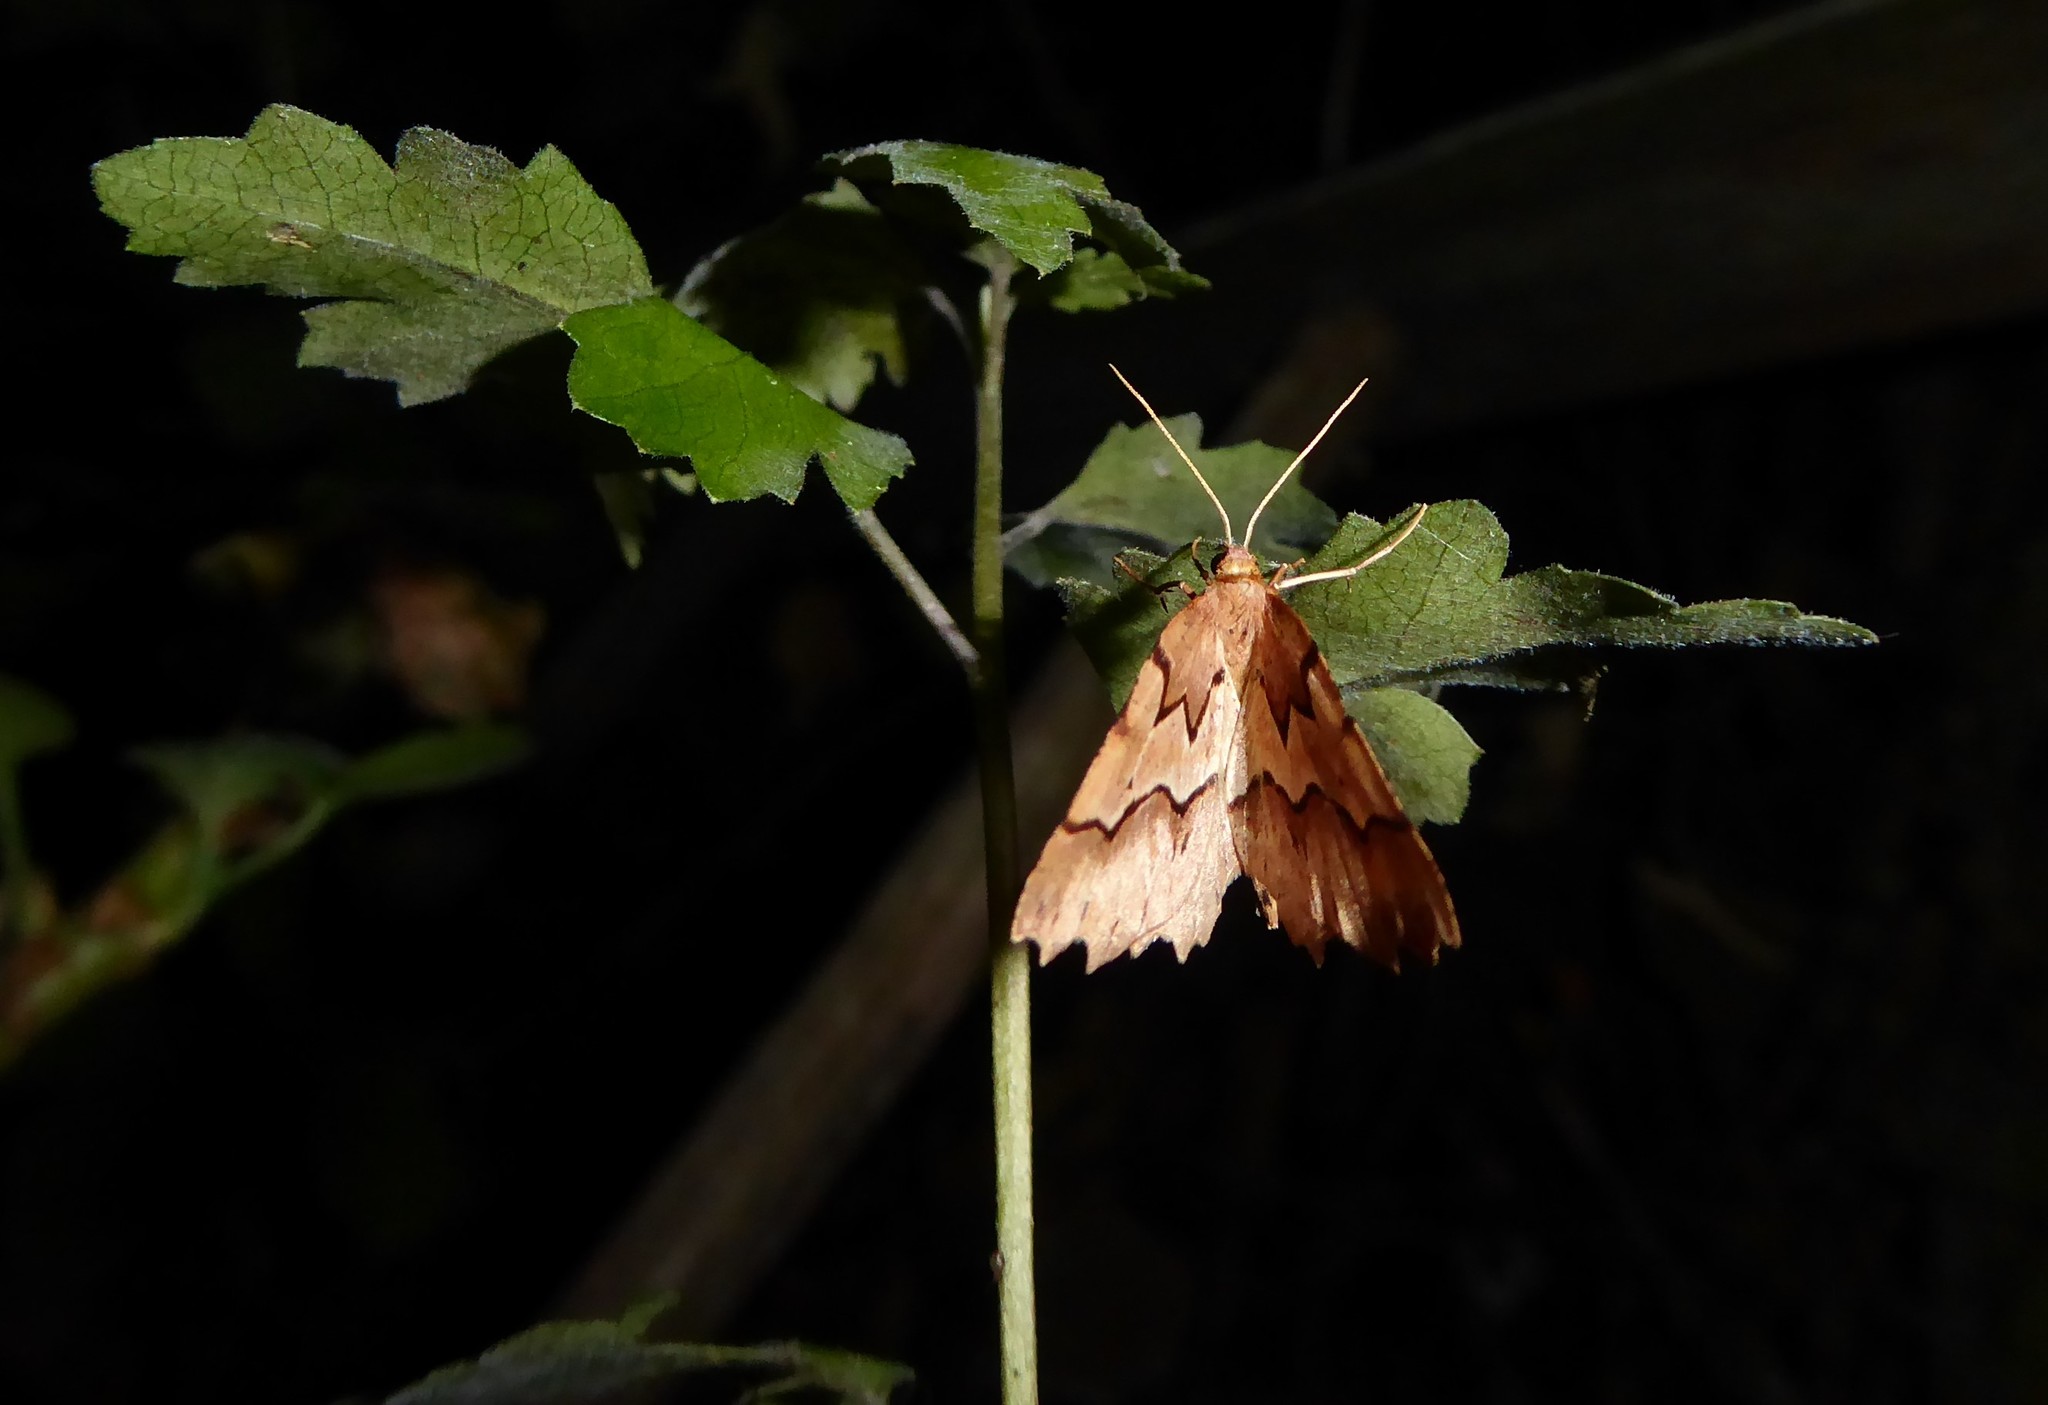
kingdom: Animalia
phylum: Arthropoda
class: Insecta
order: Lepidoptera
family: Geometridae
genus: Ischalis
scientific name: Ischalis fortinata
